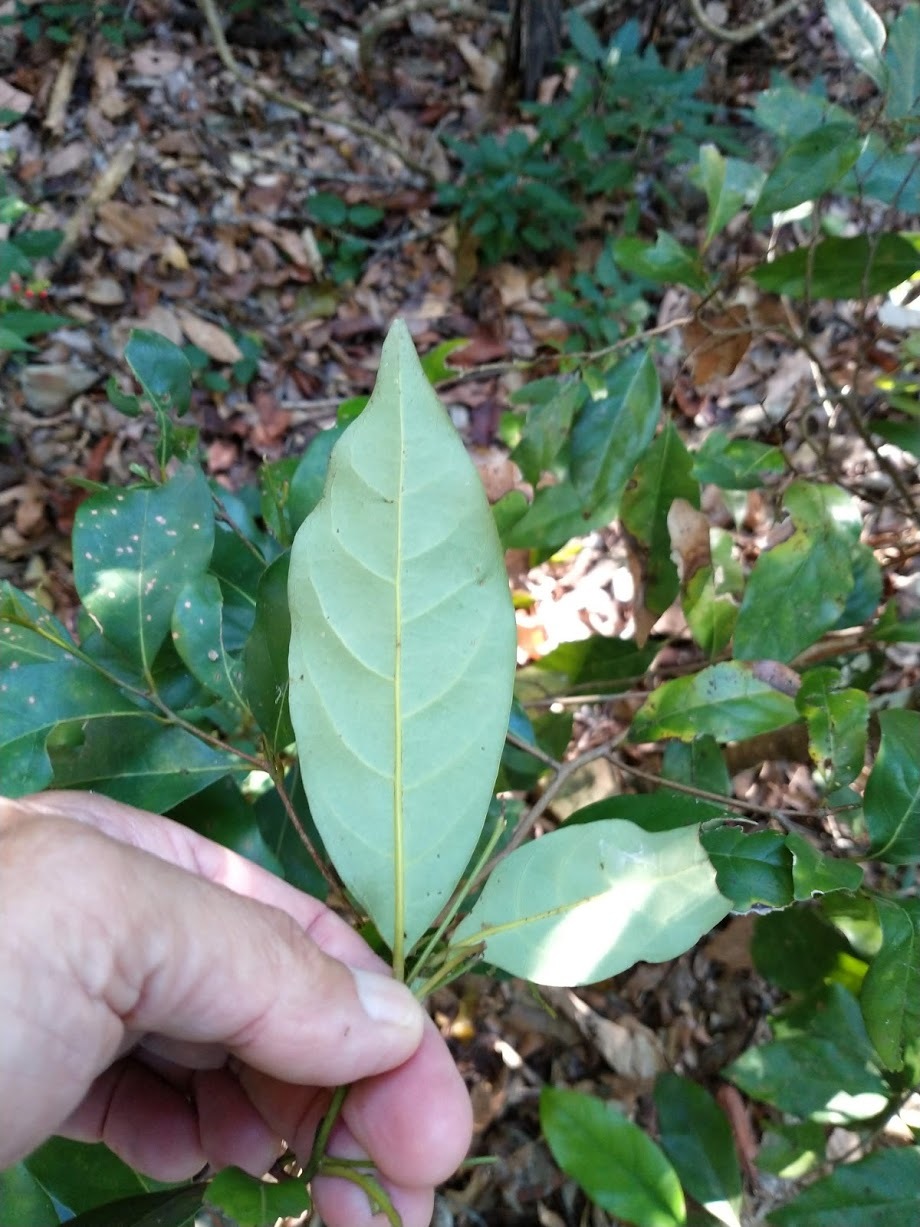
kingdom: Plantae
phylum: Tracheophyta
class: Magnoliopsida
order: Laurales
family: Lauraceae
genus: Cryptocarya
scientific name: Cryptocarya macdonaldii
